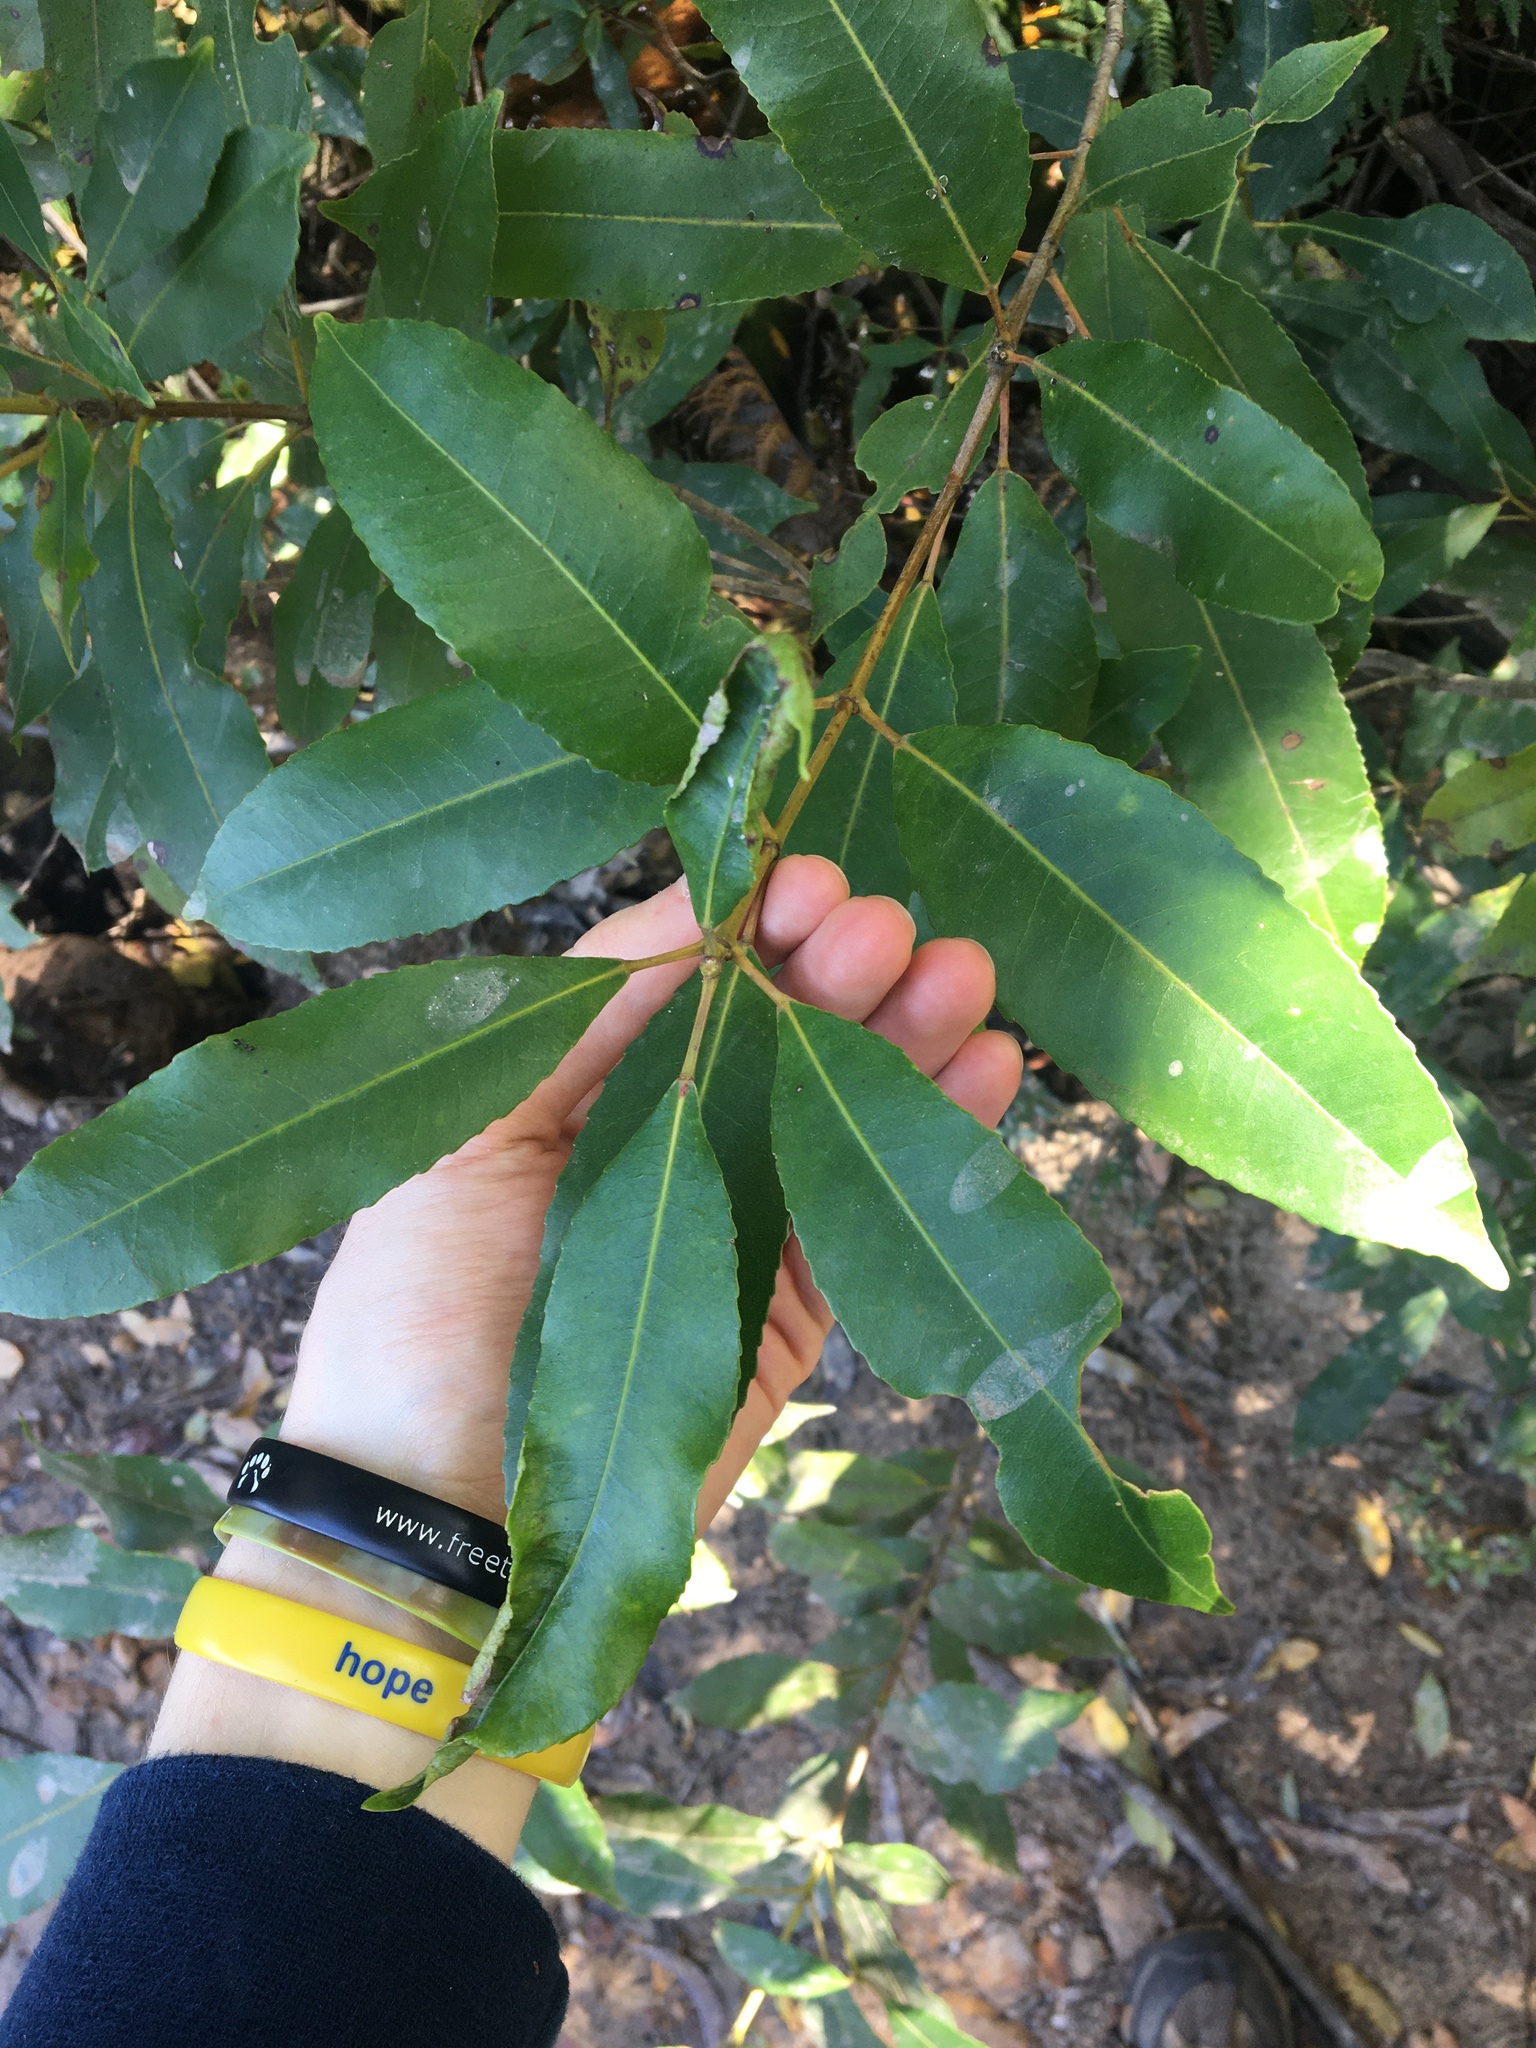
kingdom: Plantae
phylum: Tracheophyta
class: Magnoliopsida
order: Oxalidales
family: Cunoniaceae
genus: Ceratopetalum
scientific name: Ceratopetalum apetalum
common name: Scented satinwood
